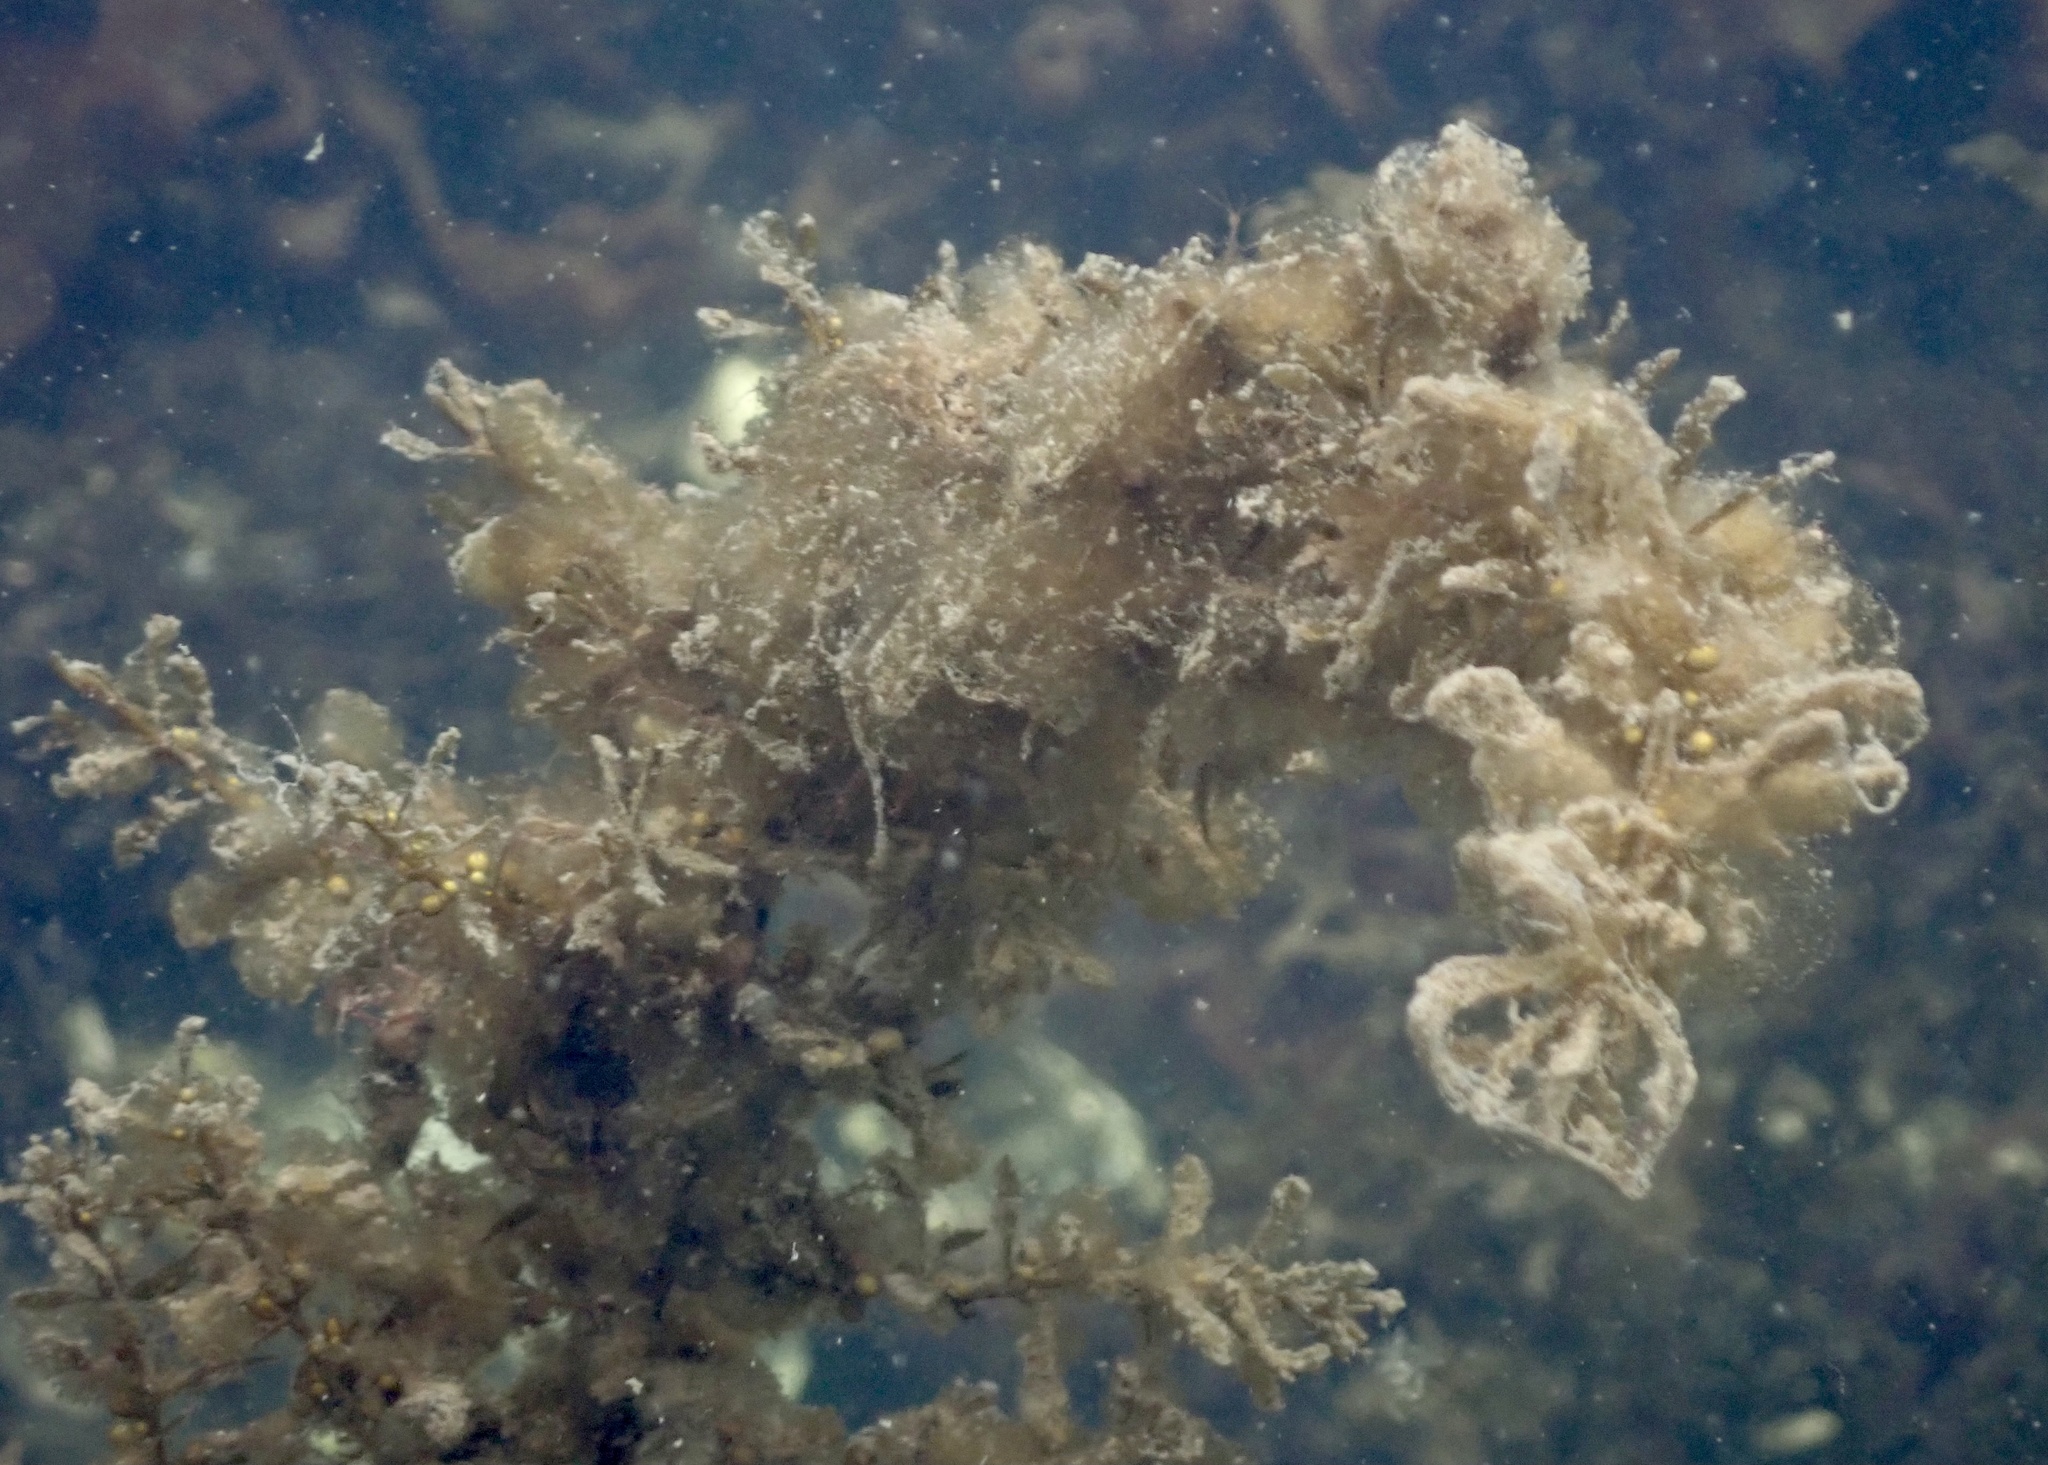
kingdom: Chromista
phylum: Ochrophyta
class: Phaeophyceae
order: Fucales
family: Sargassaceae
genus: Sargassum
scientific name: Sargassum muticum
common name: Japweed
